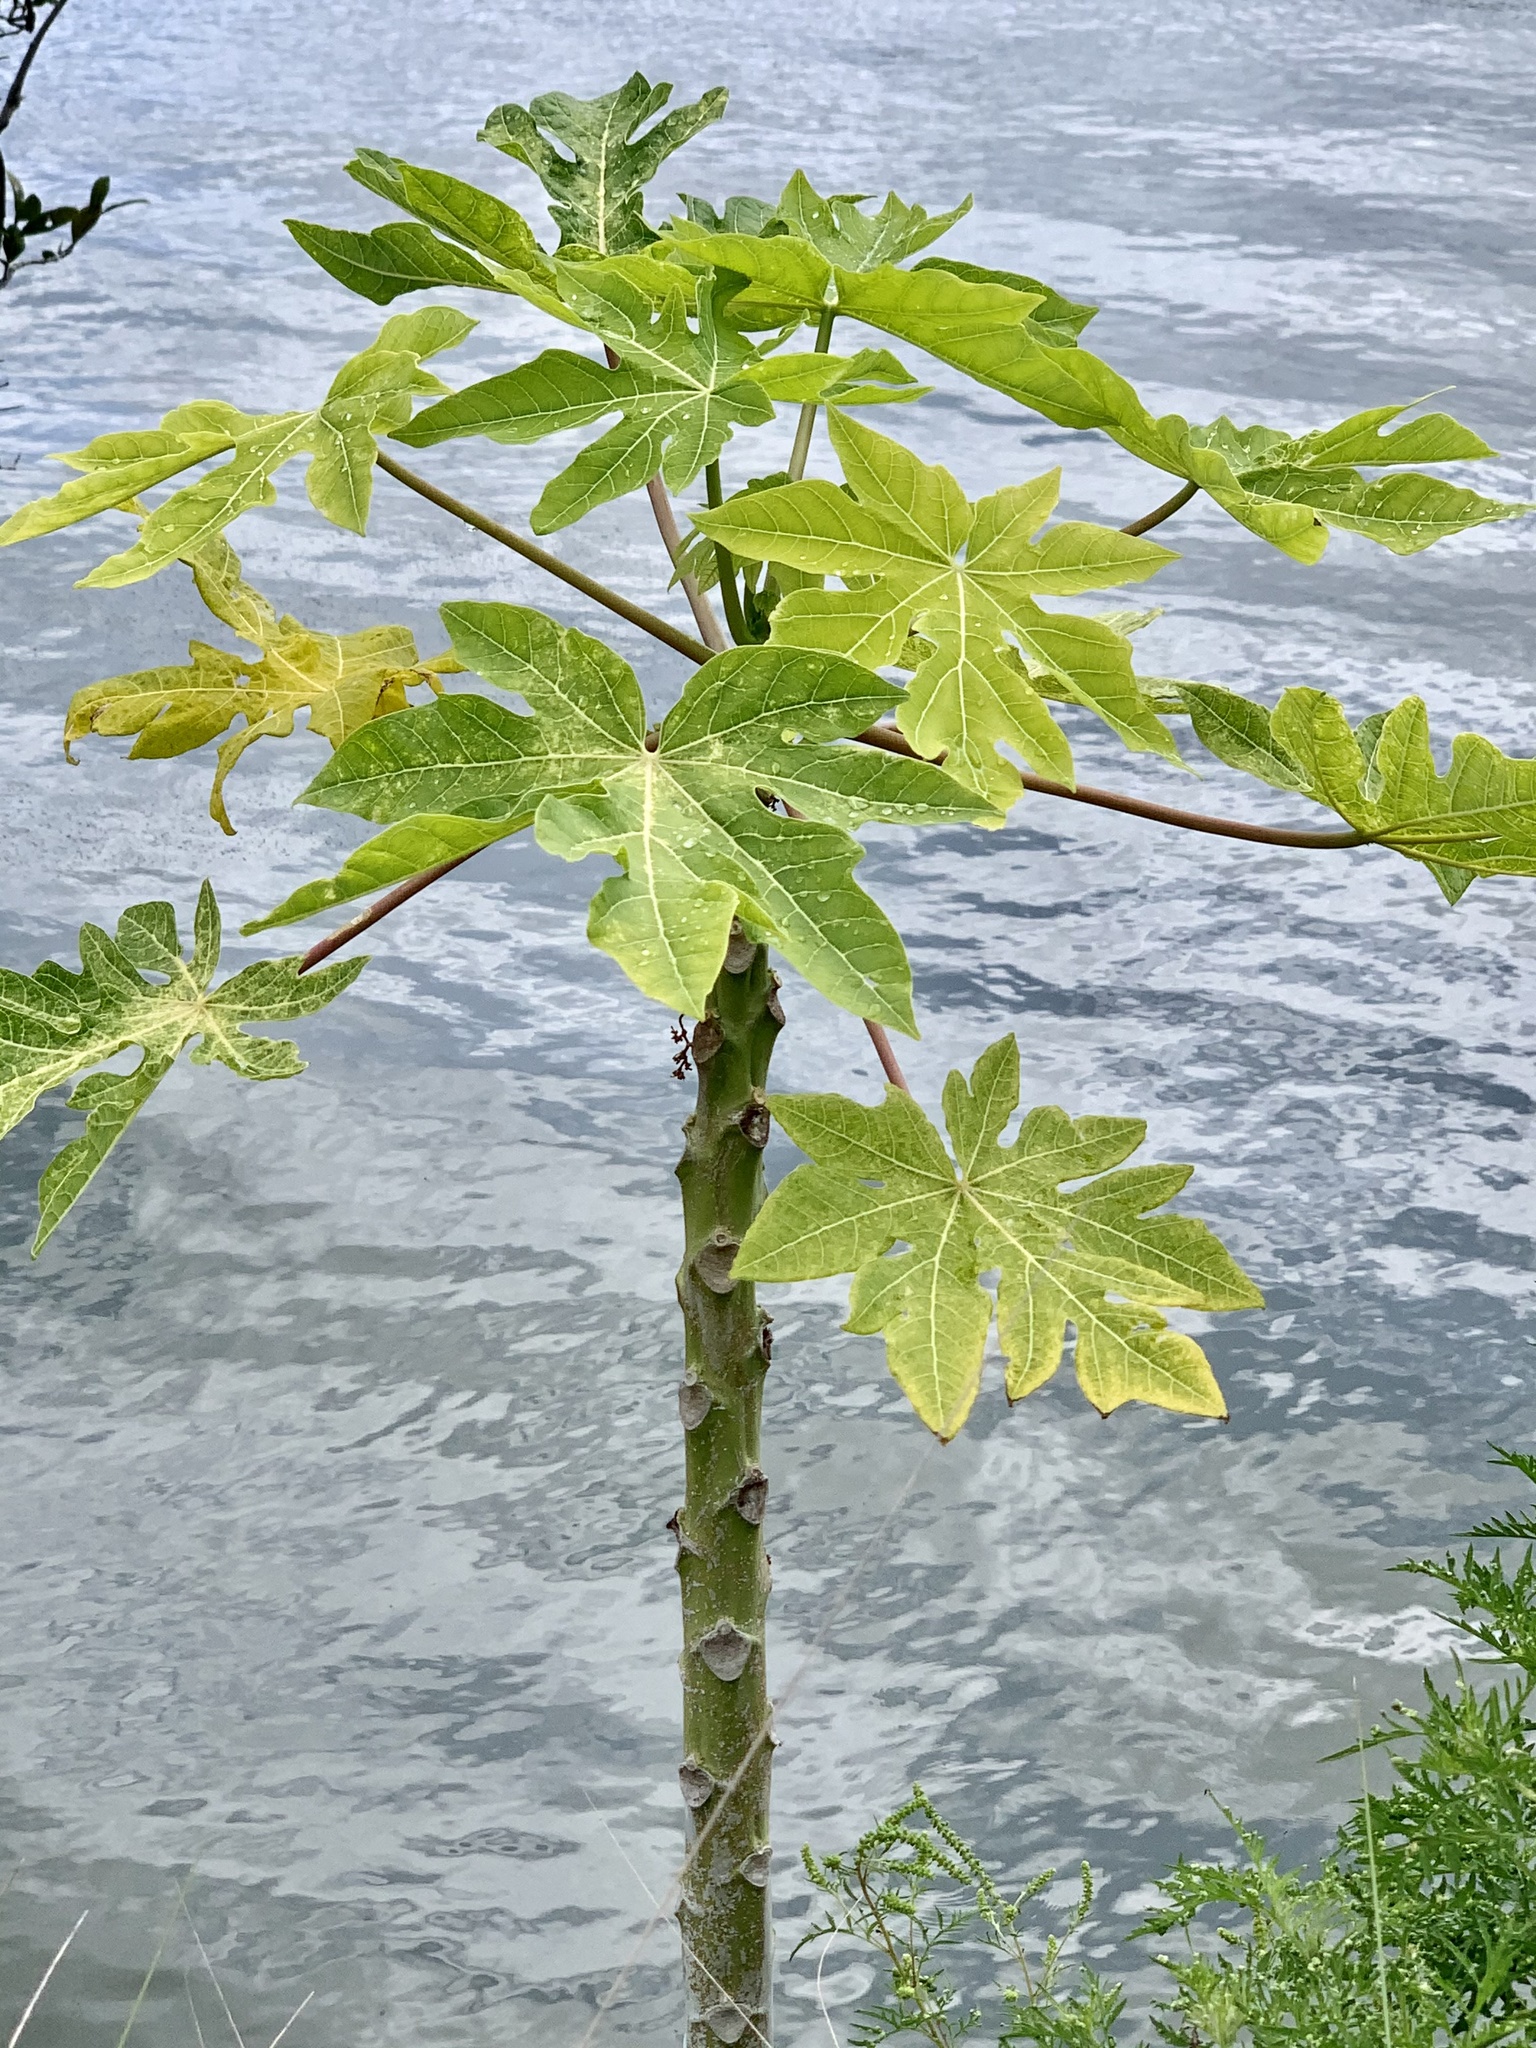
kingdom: Plantae
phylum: Tracheophyta
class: Magnoliopsida
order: Brassicales
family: Caricaceae
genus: Carica
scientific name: Carica papaya
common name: Papaya
